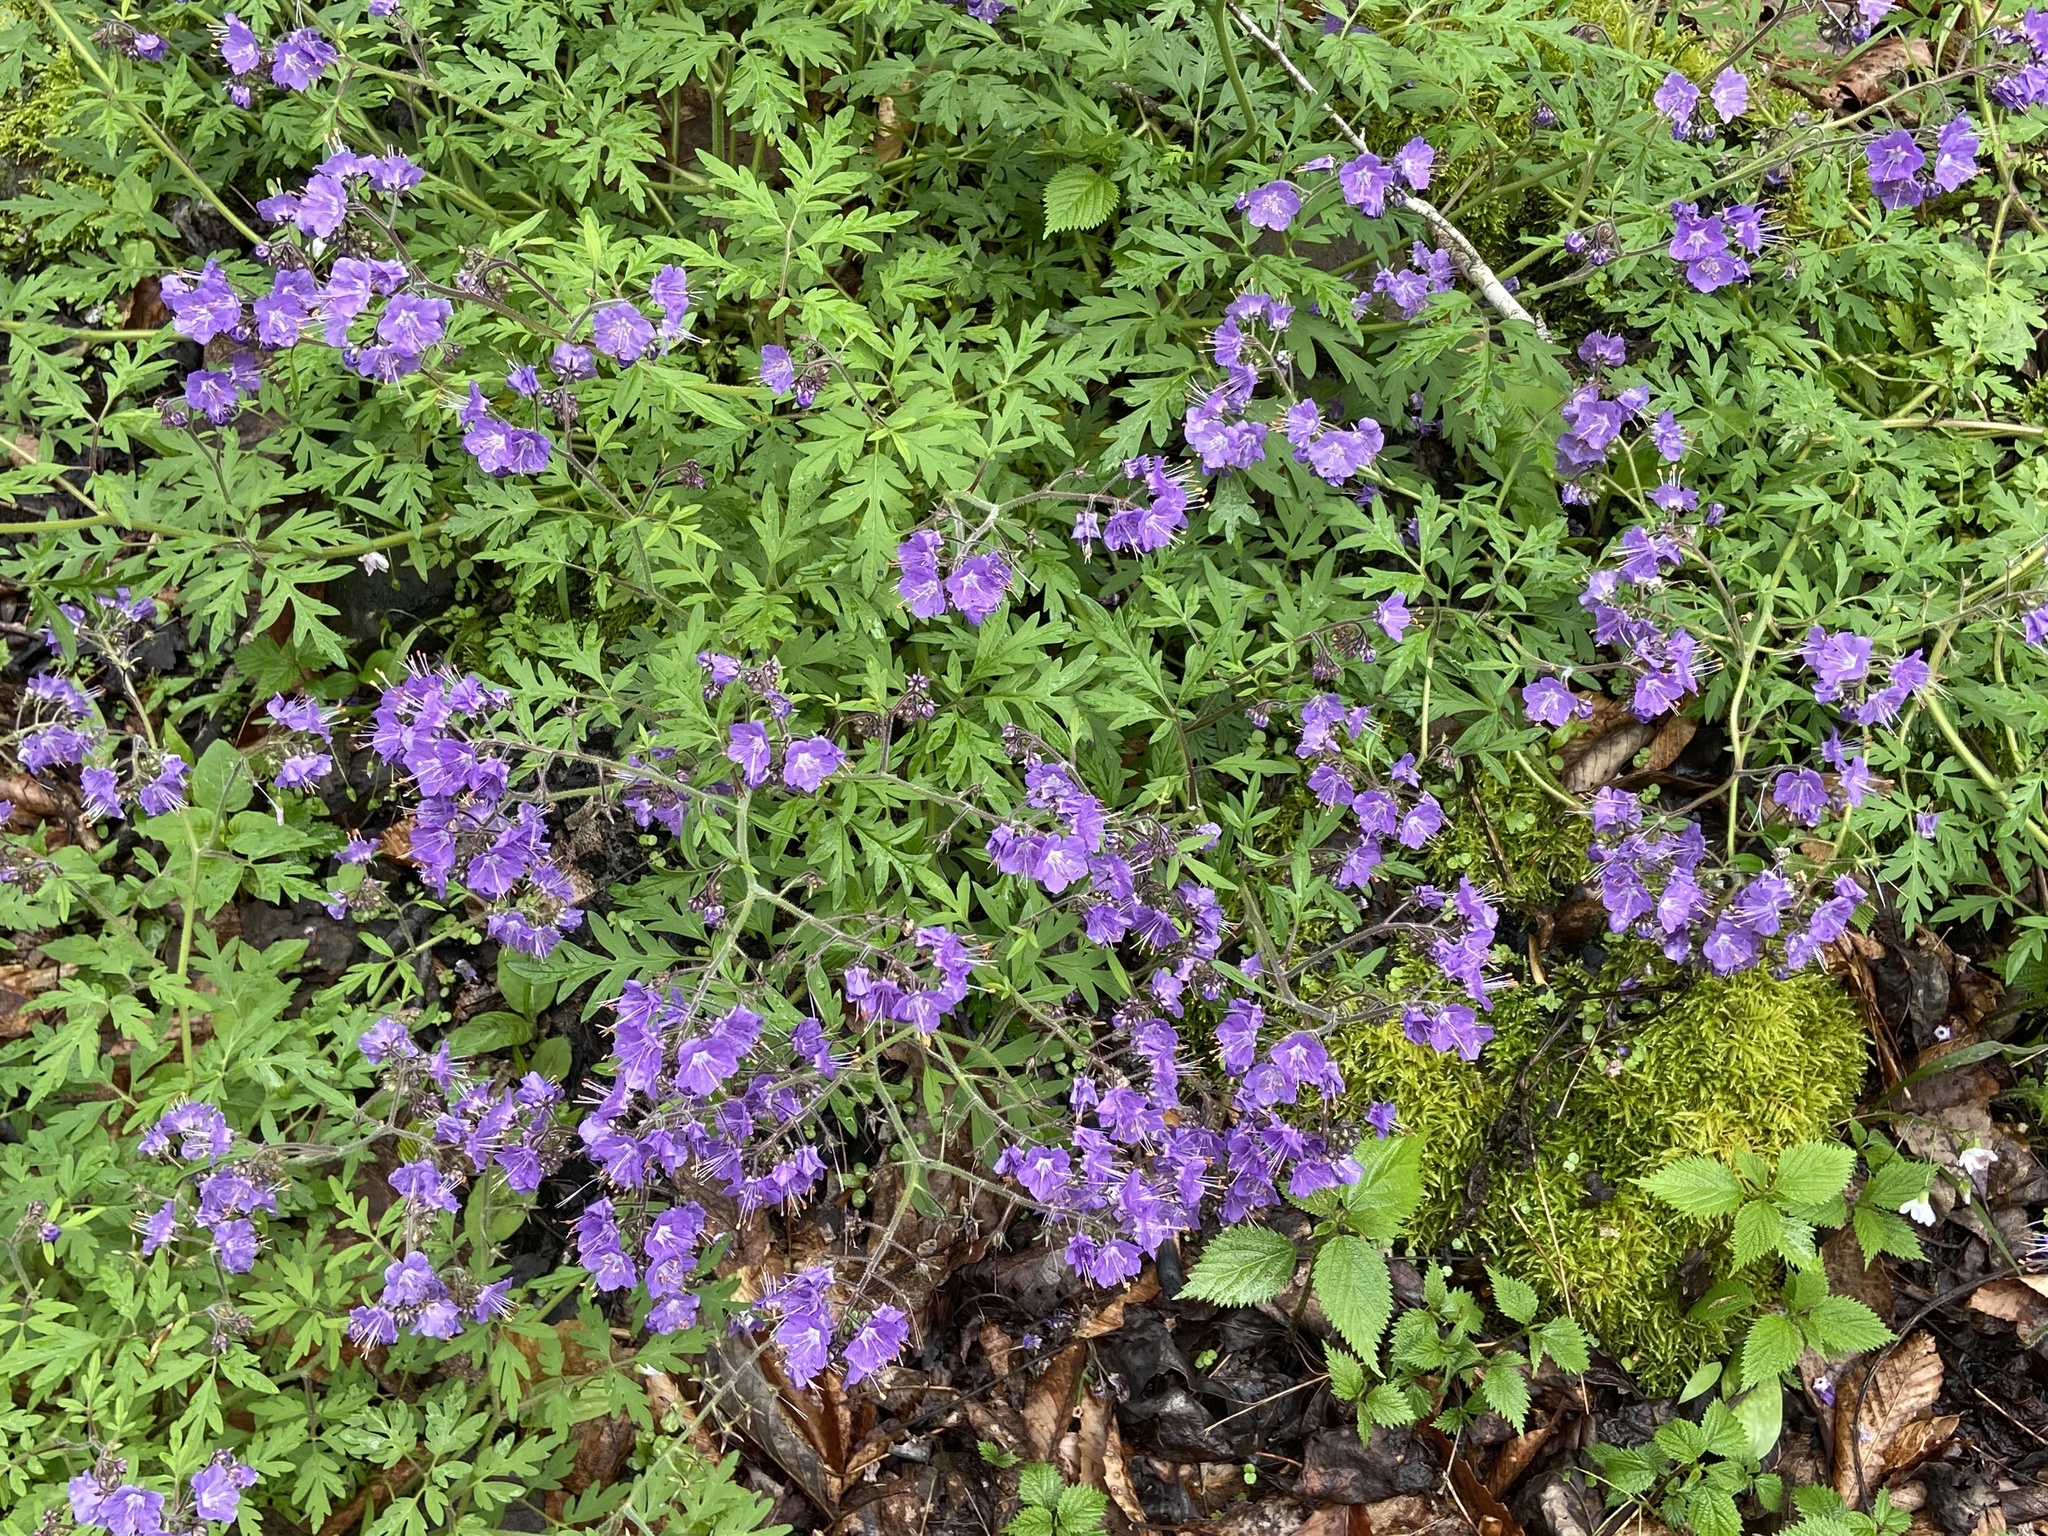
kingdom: Plantae
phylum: Tracheophyta
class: Magnoliopsida
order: Boraginales
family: Hydrophyllaceae
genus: Phacelia
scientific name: Phacelia bipinnatifida
